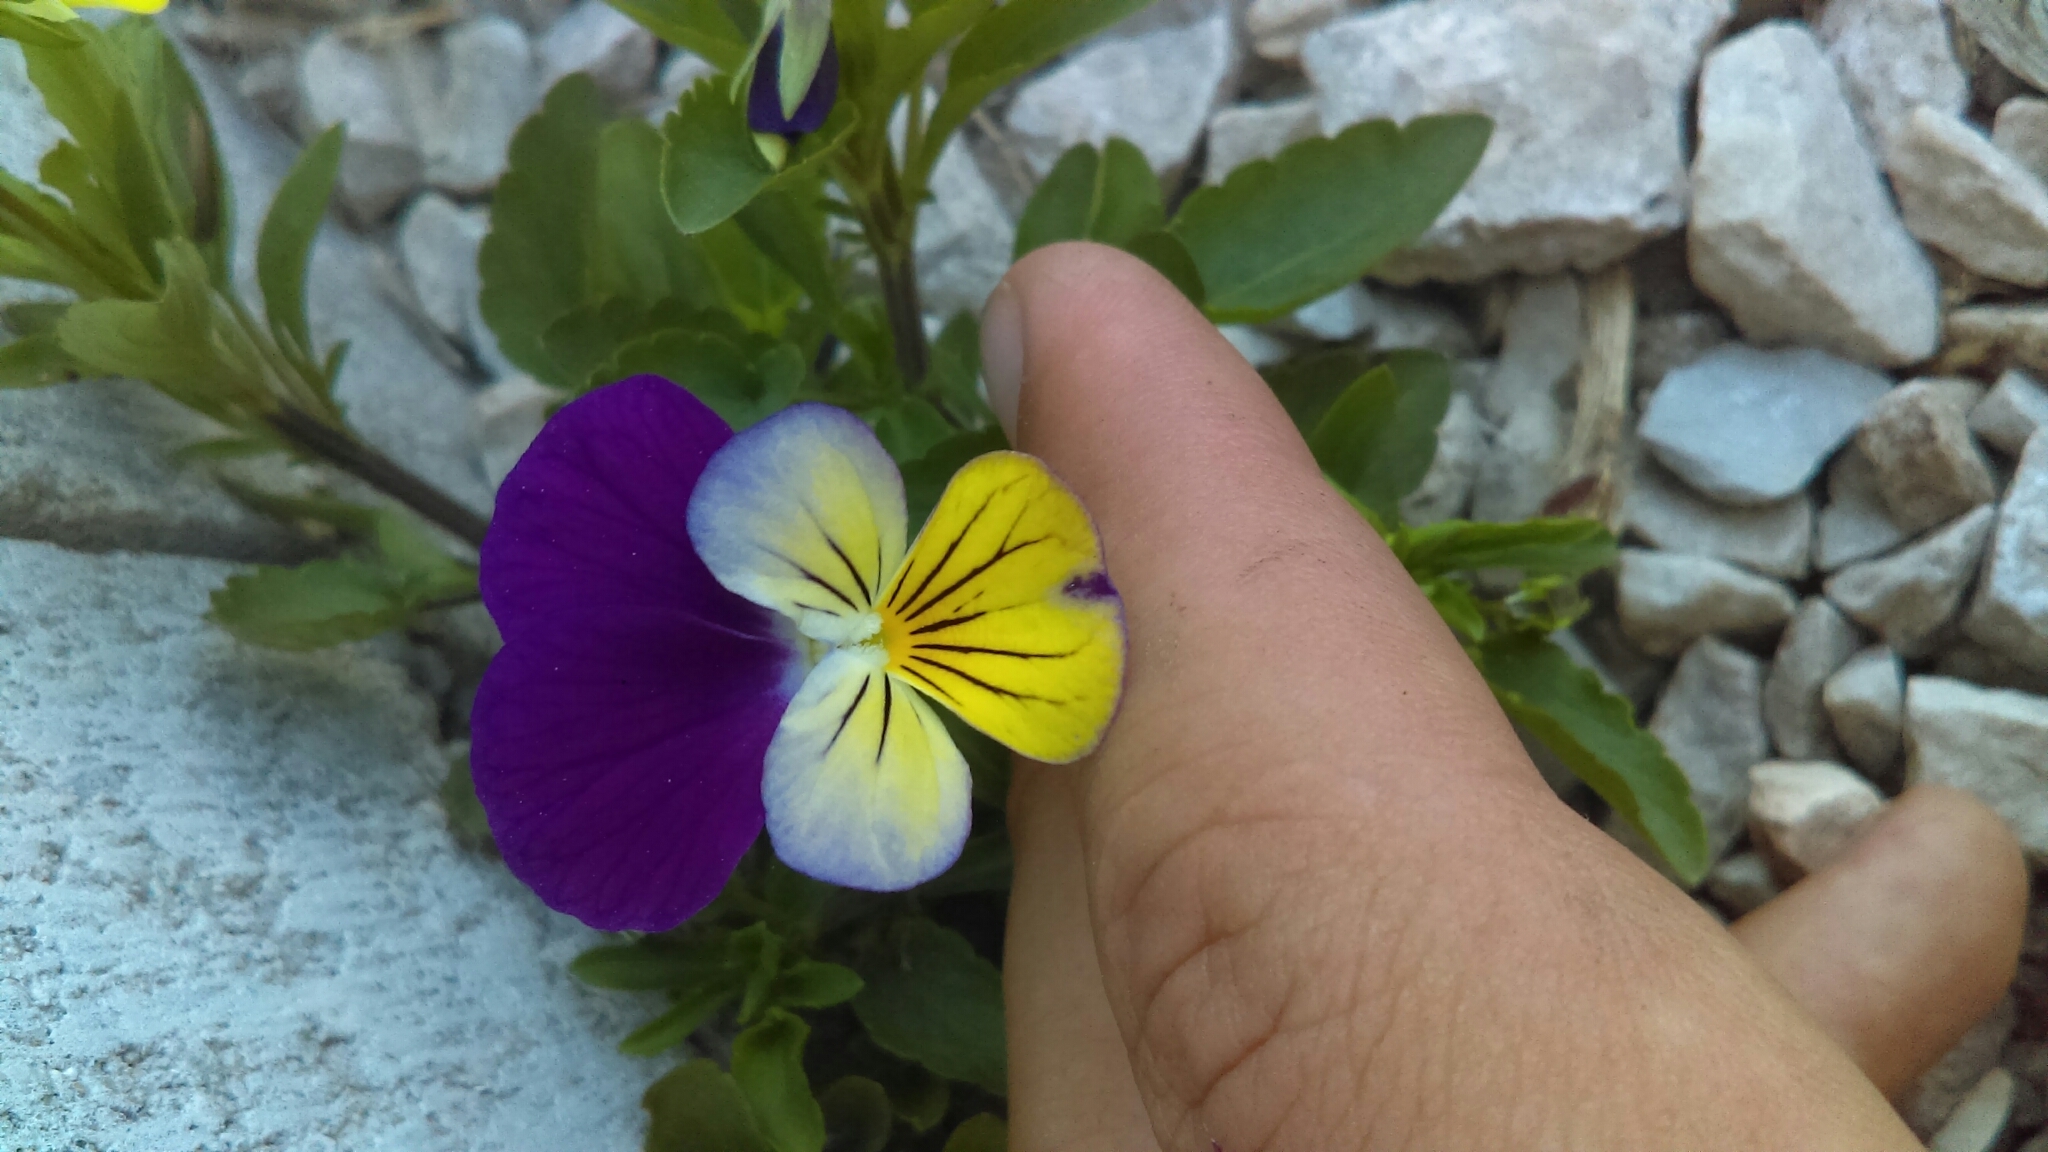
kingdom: Plantae
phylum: Tracheophyta
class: Magnoliopsida
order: Malpighiales
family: Violaceae
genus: Viola
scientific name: Viola williamsii
